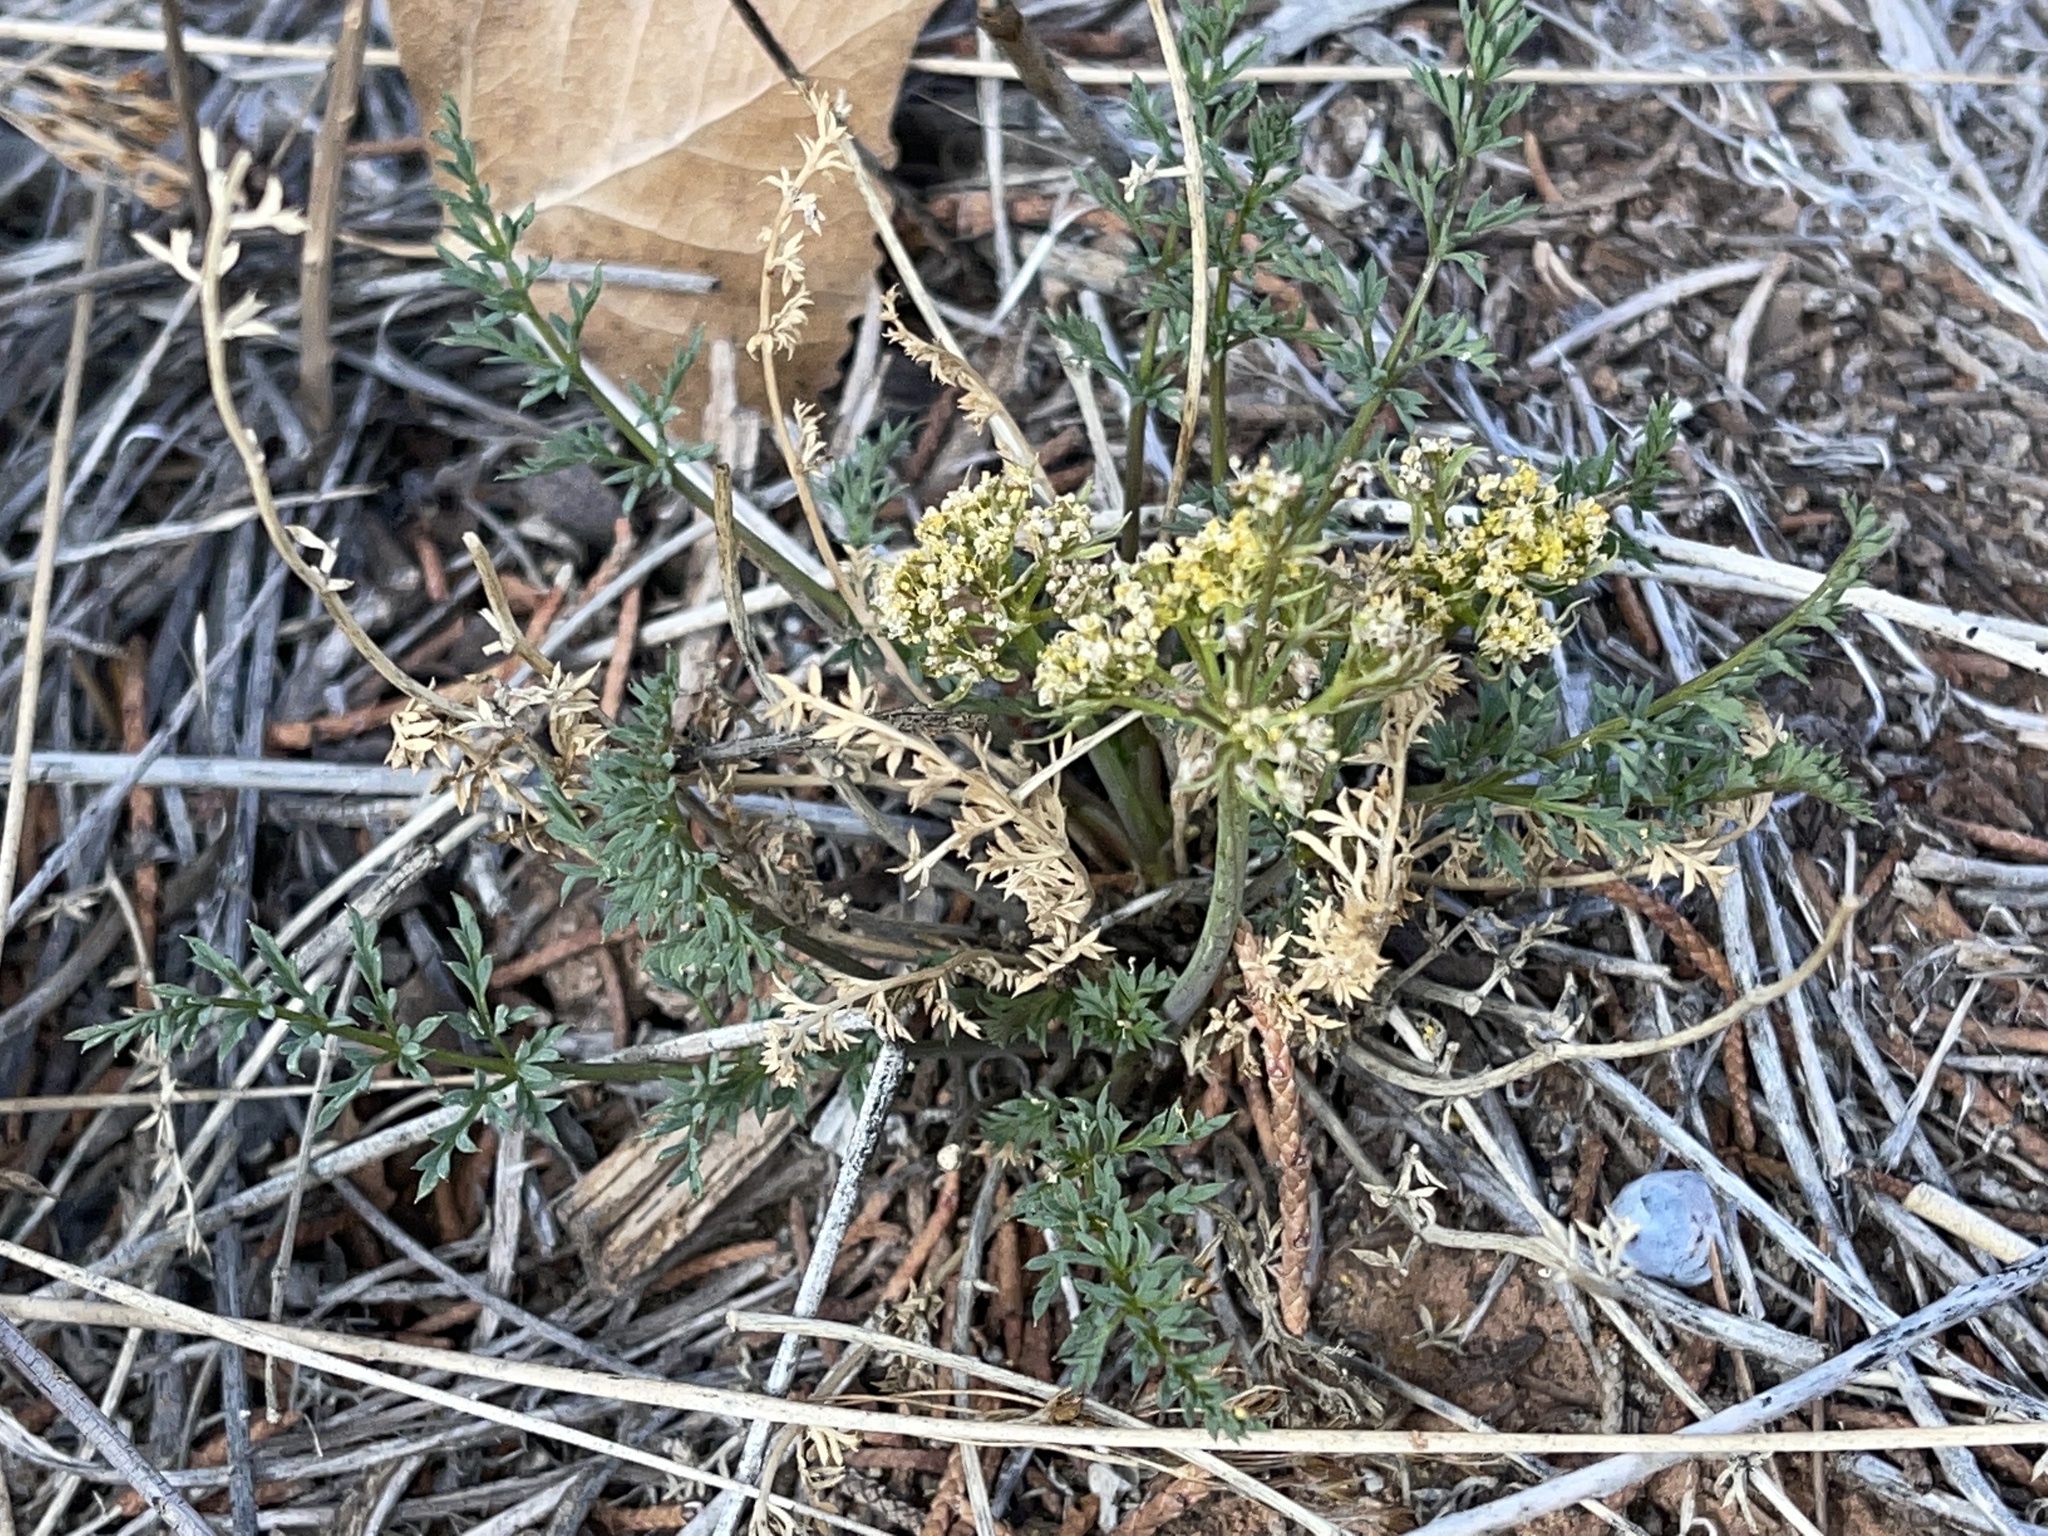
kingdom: Plantae
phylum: Tracheophyta
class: Magnoliopsida
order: Apiales
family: Apiaceae
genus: Lomatium
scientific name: Lomatium parryi
